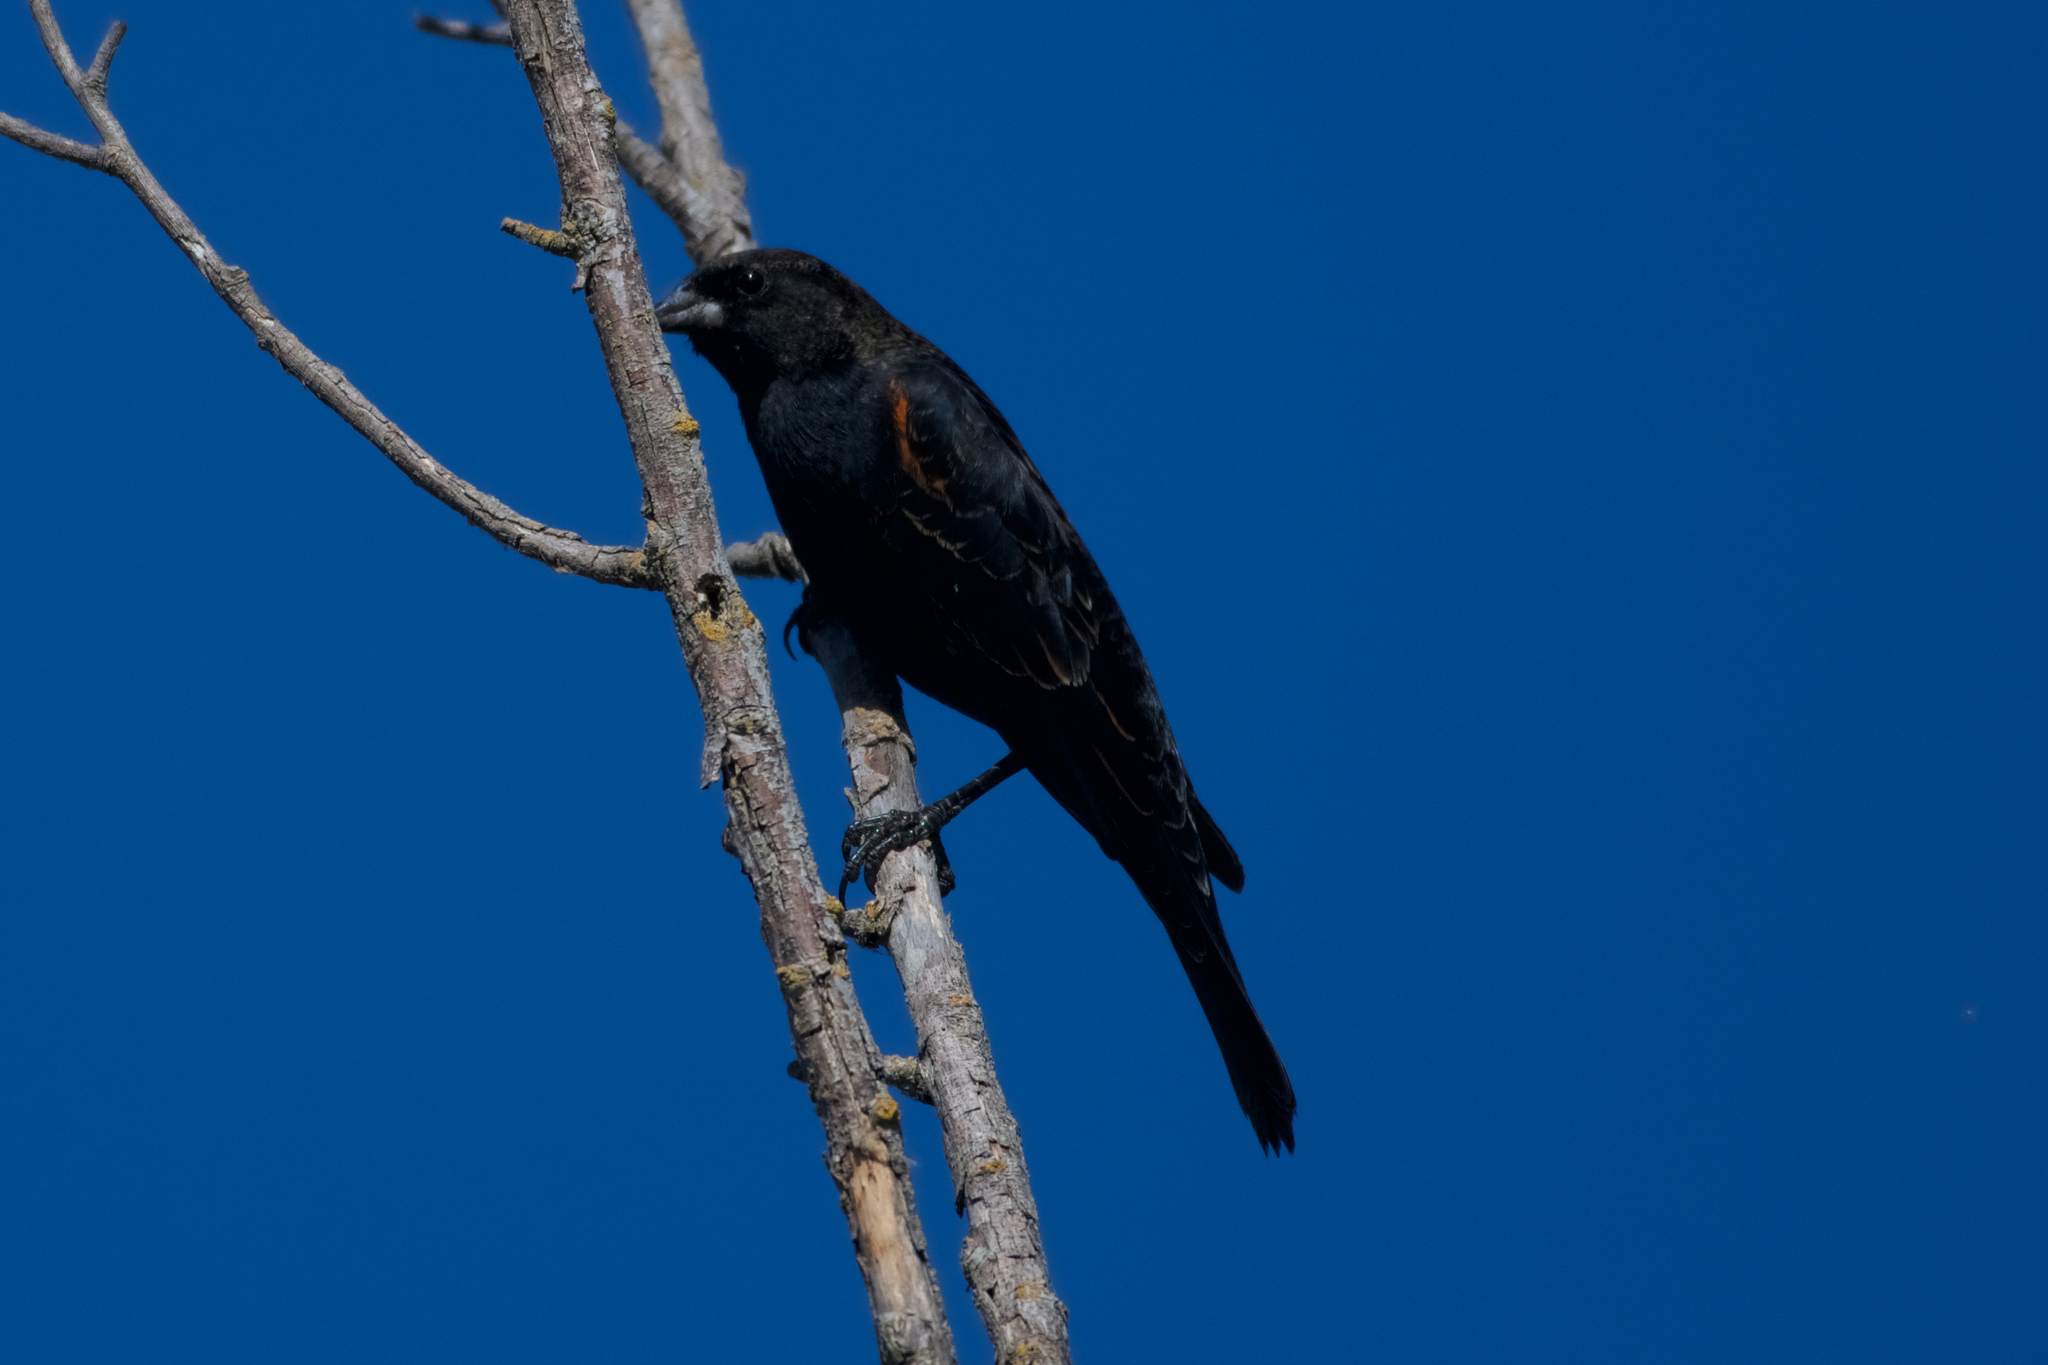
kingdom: Animalia
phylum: Chordata
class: Aves
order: Passeriformes
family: Icteridae
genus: Agelaius
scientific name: Agelaius phoeniceus
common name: Red-winged blackbird
